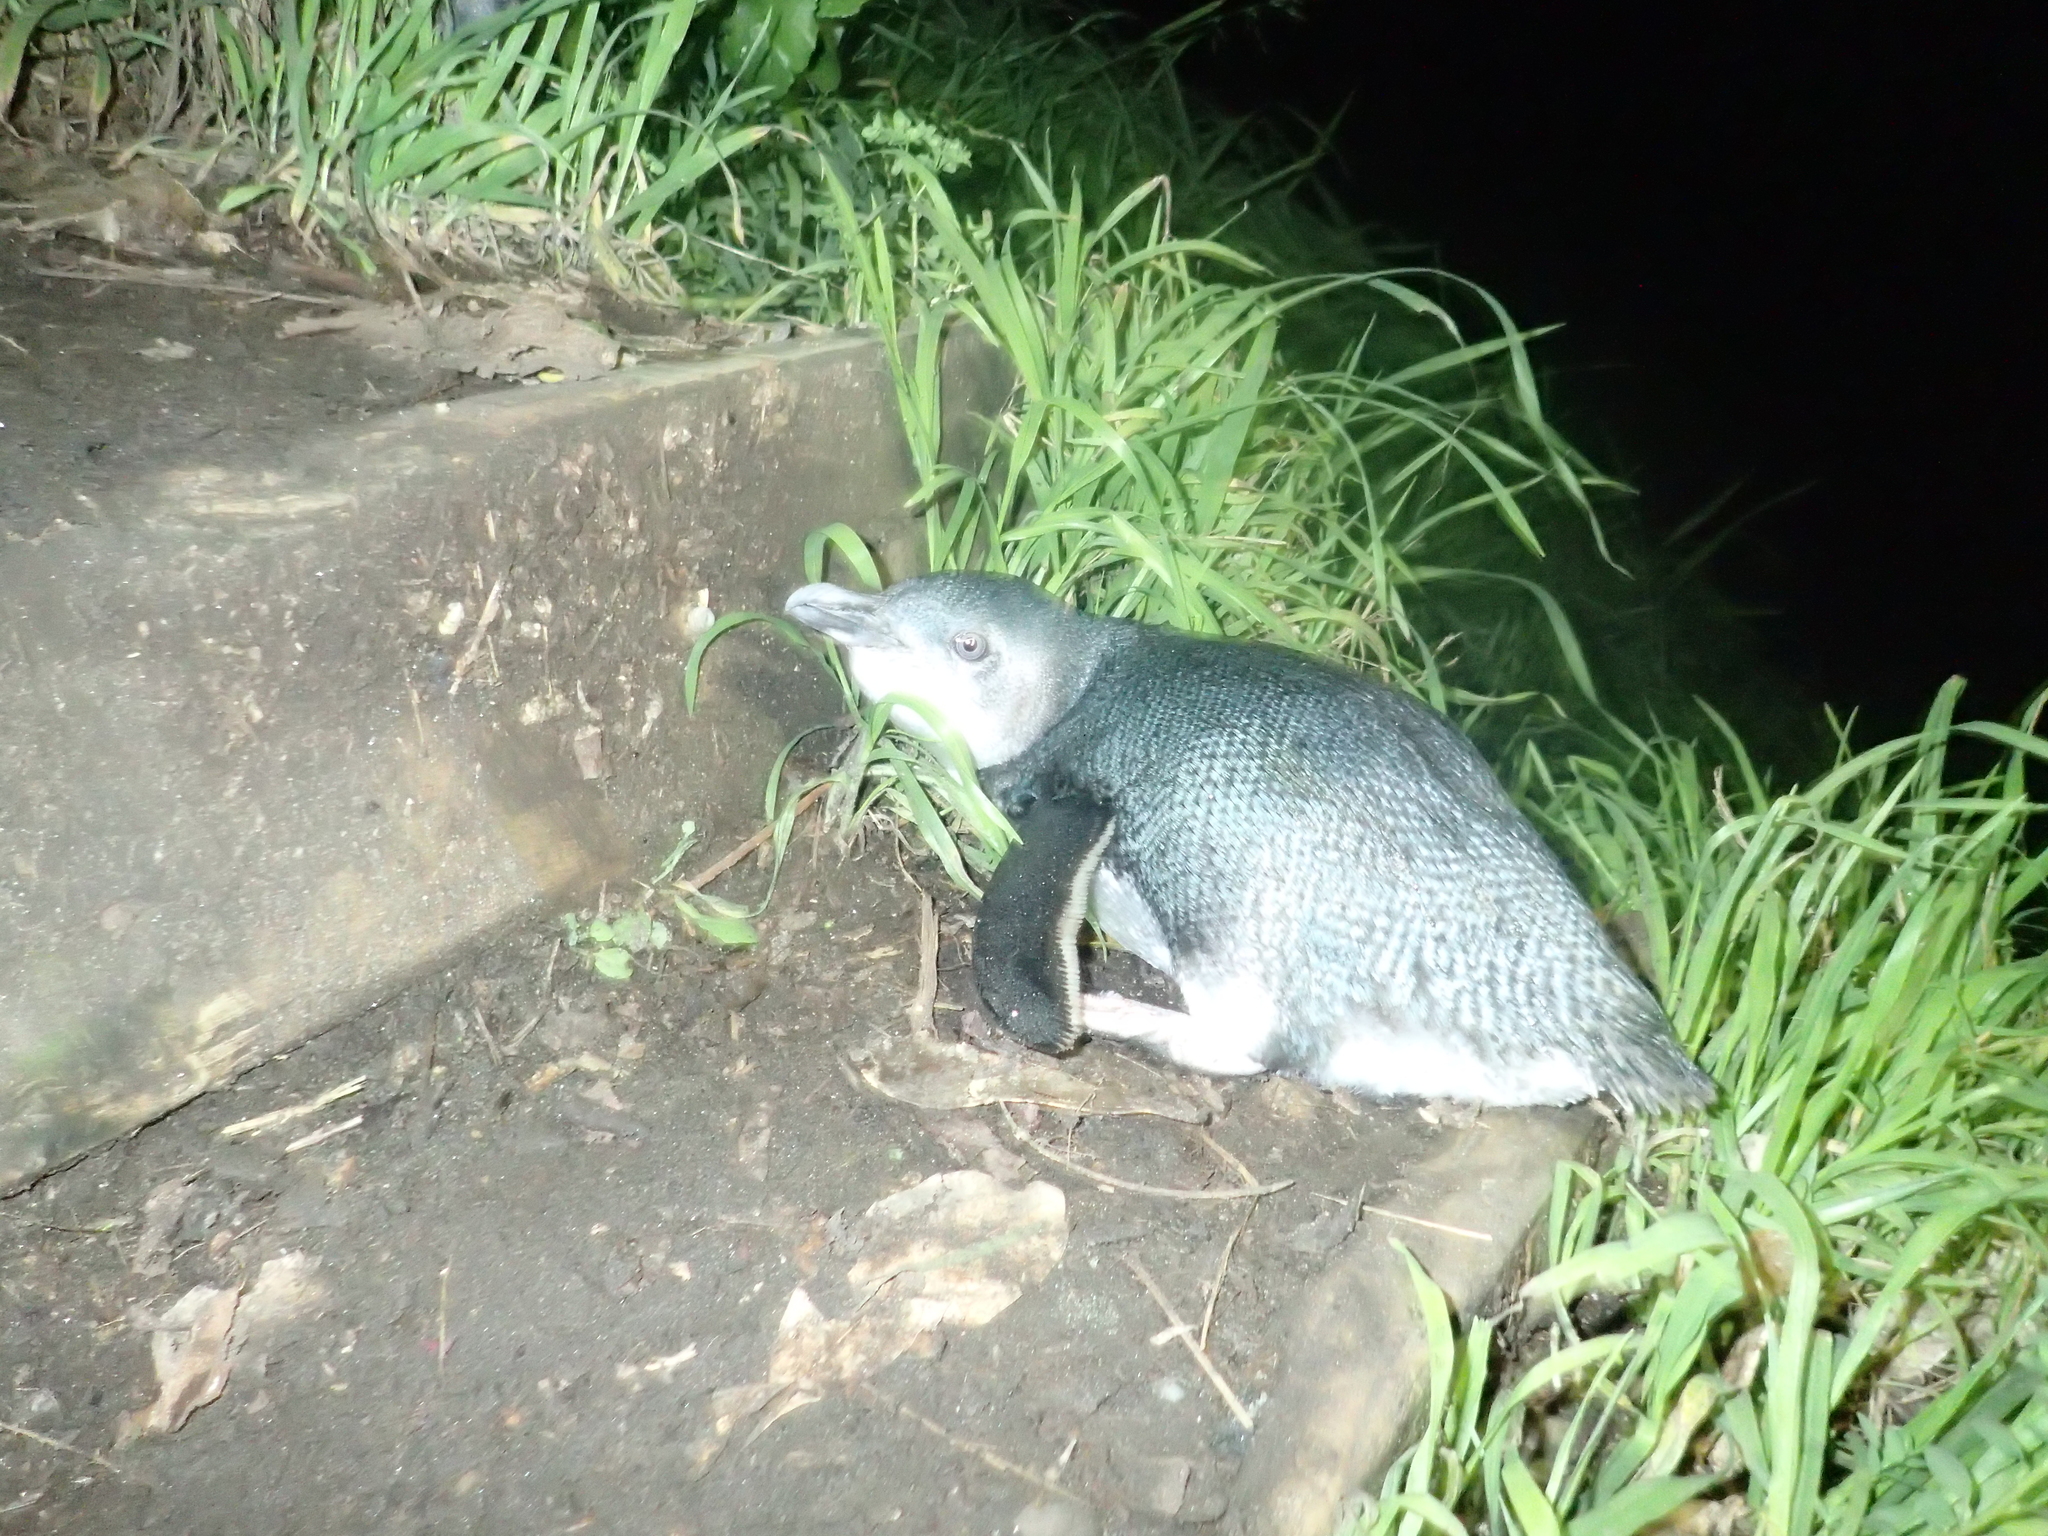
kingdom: Animalia
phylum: Chordata
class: Aves
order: Sphenisciformes
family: Spheniscidae
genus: Eudyptula
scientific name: Eudyptula minor
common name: Little penguin
